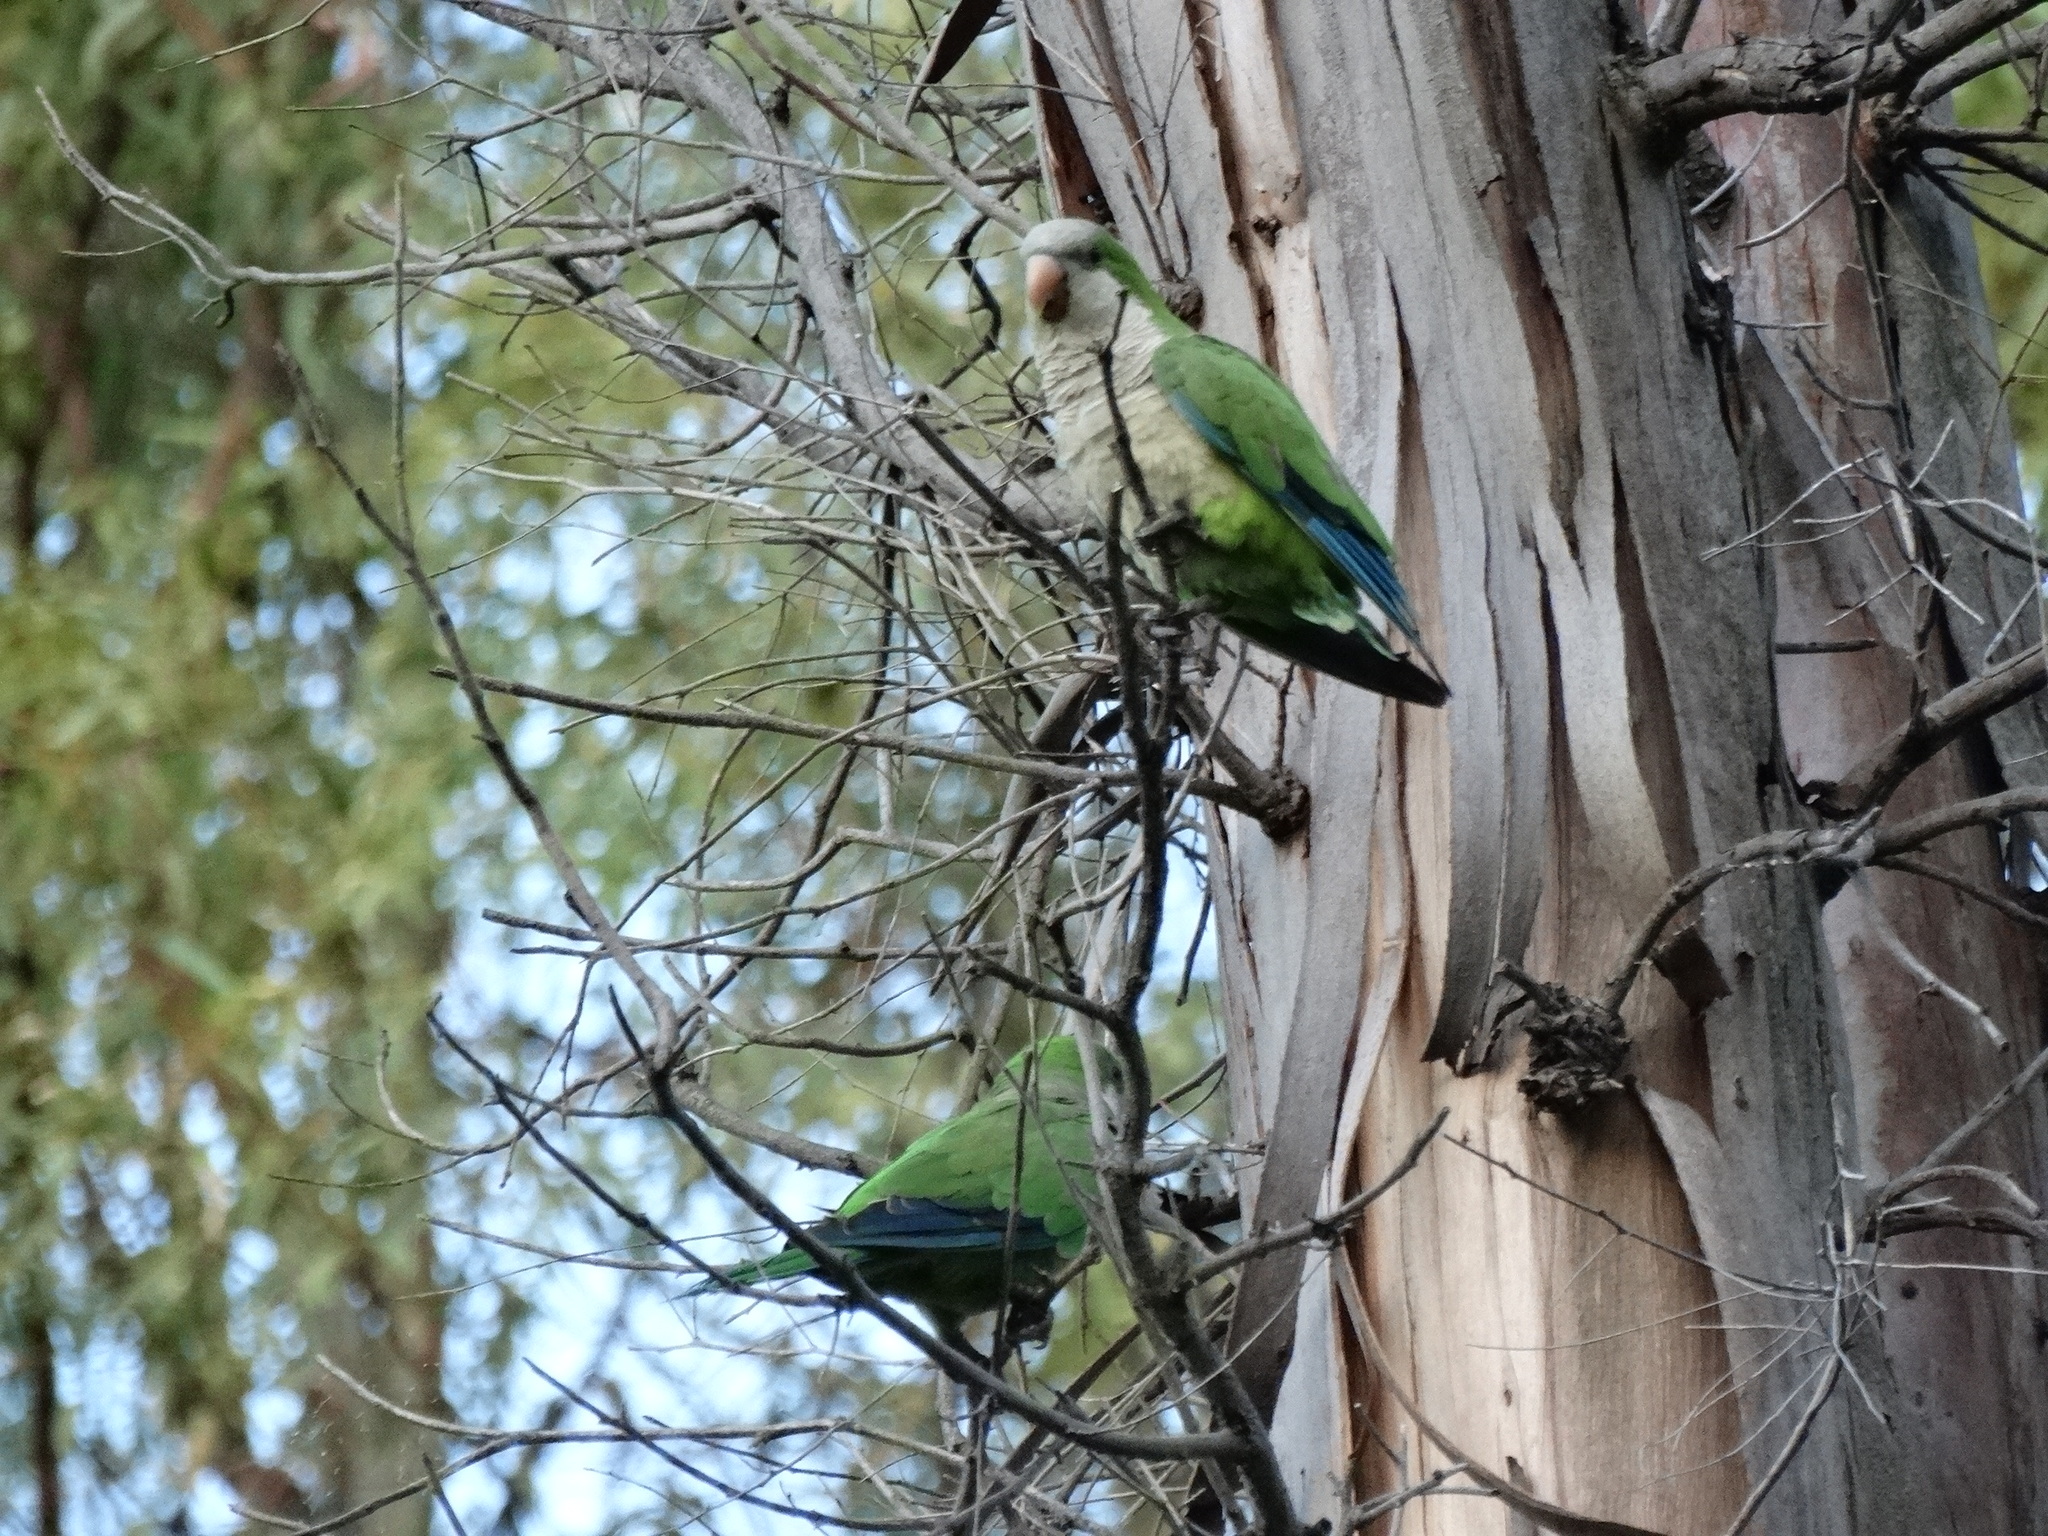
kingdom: Animalia
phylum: Chordata
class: Aves
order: Psittaciformes
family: Psittacidae
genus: Myiopsitta
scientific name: Myiopsitta monachus
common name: Monk parakeet
